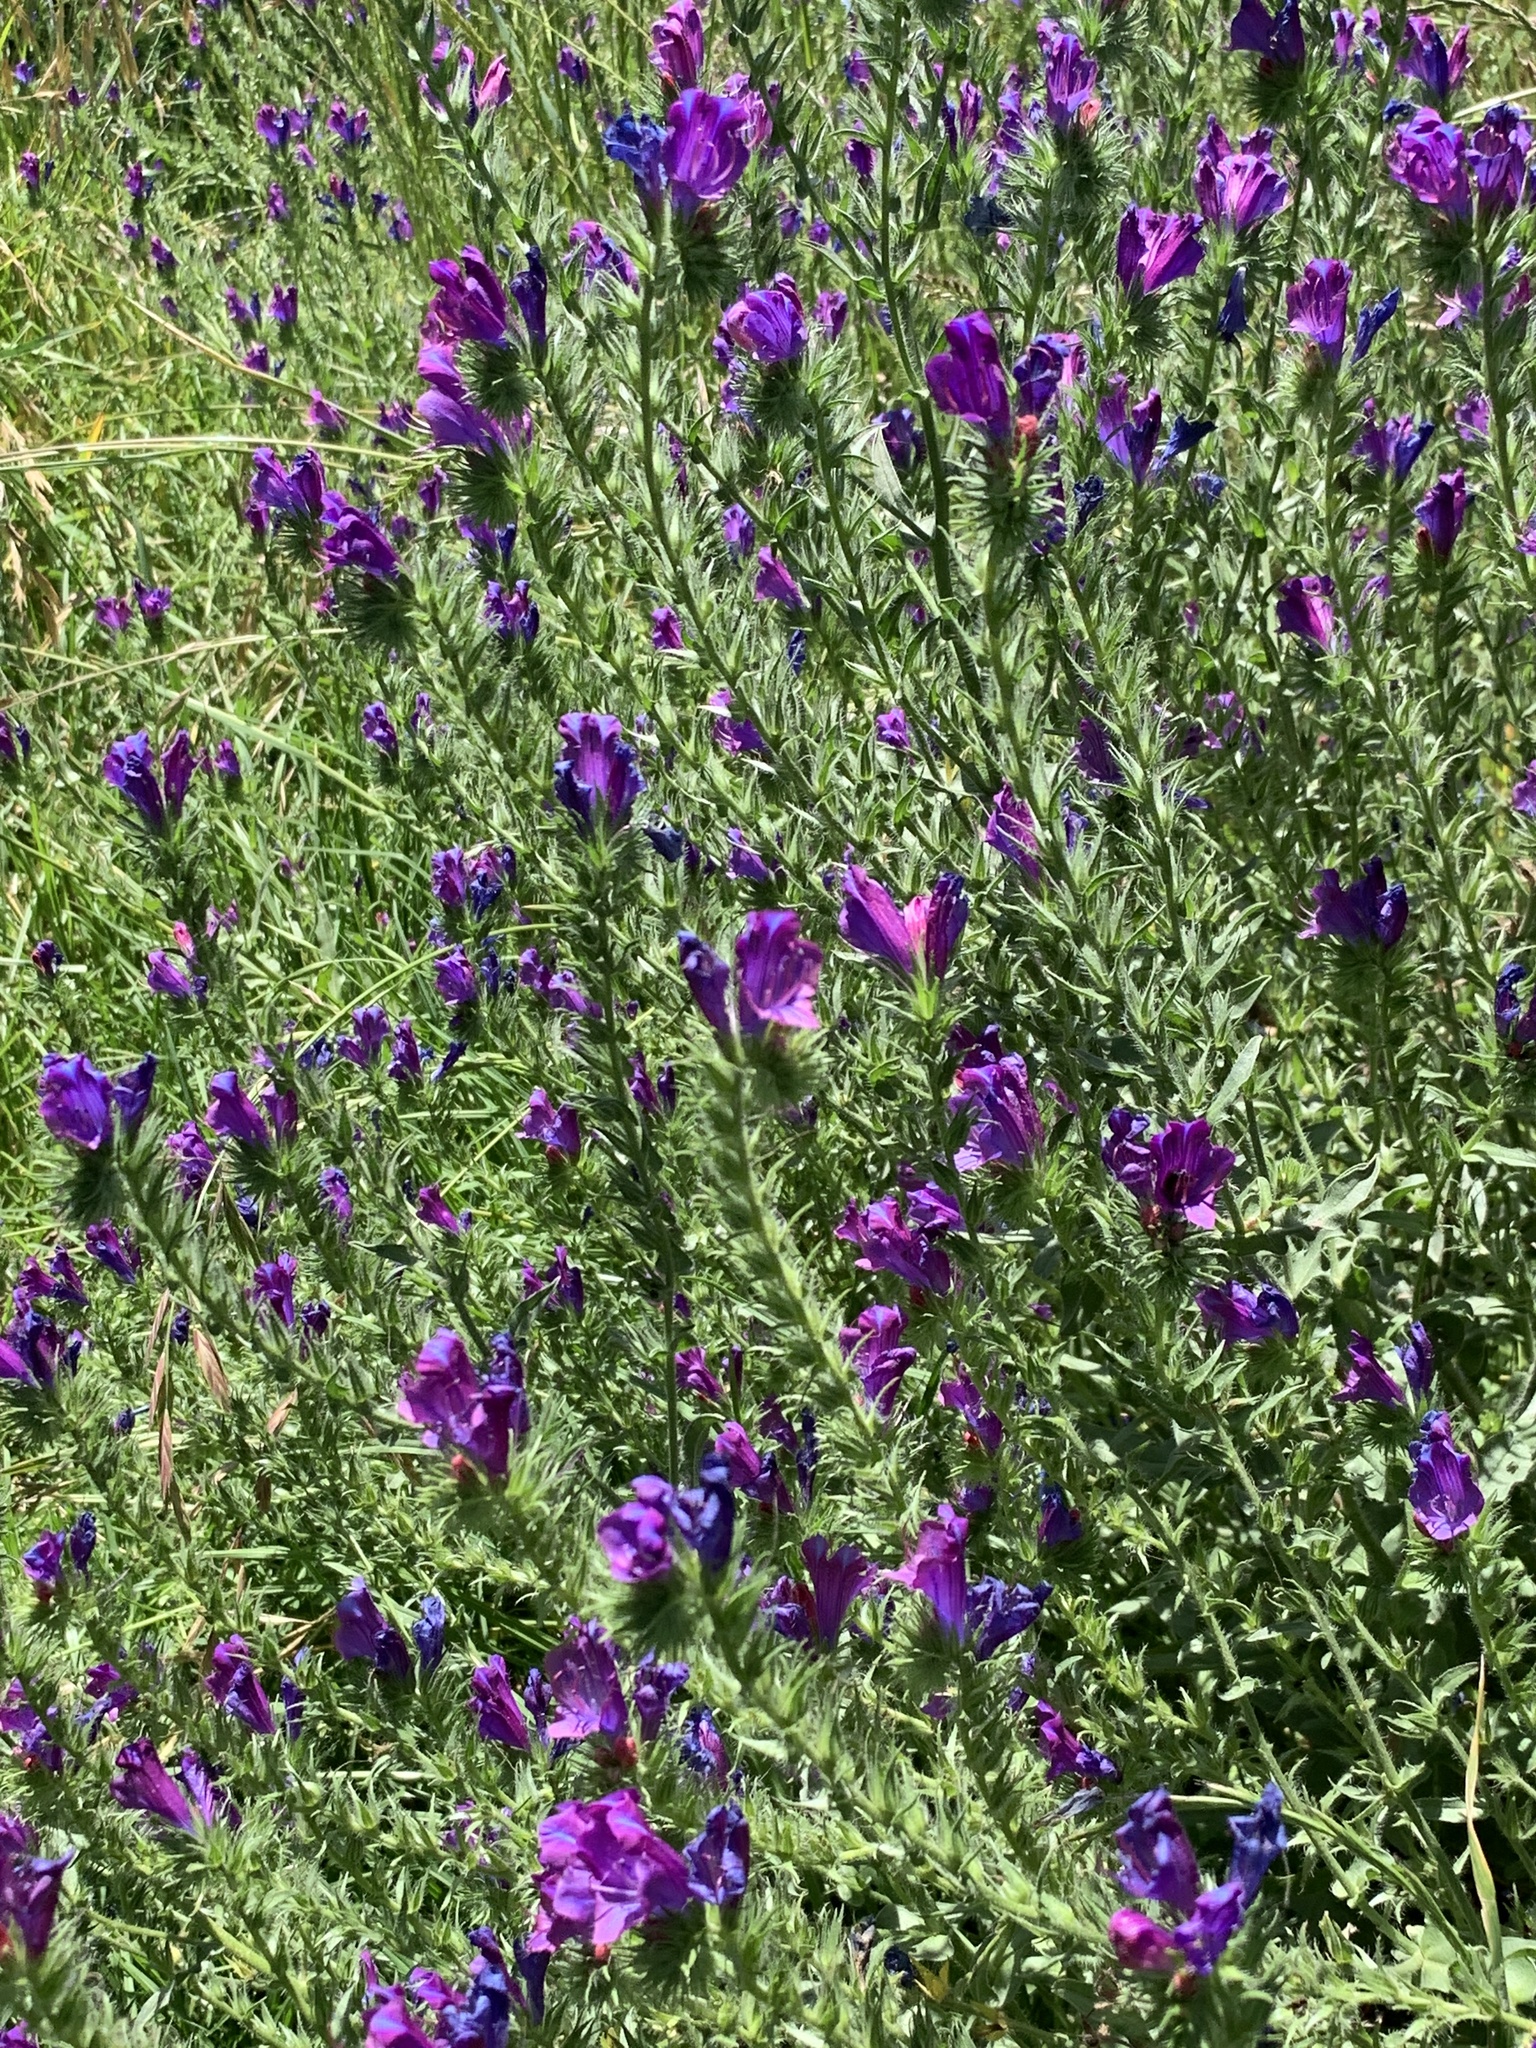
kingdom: Plantae
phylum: Tracheophyta
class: Magnoliopsida
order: Boraginales
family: Boraginaceae
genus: Echium
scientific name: Echium plantagineum
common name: Purple viper's-bugloss
